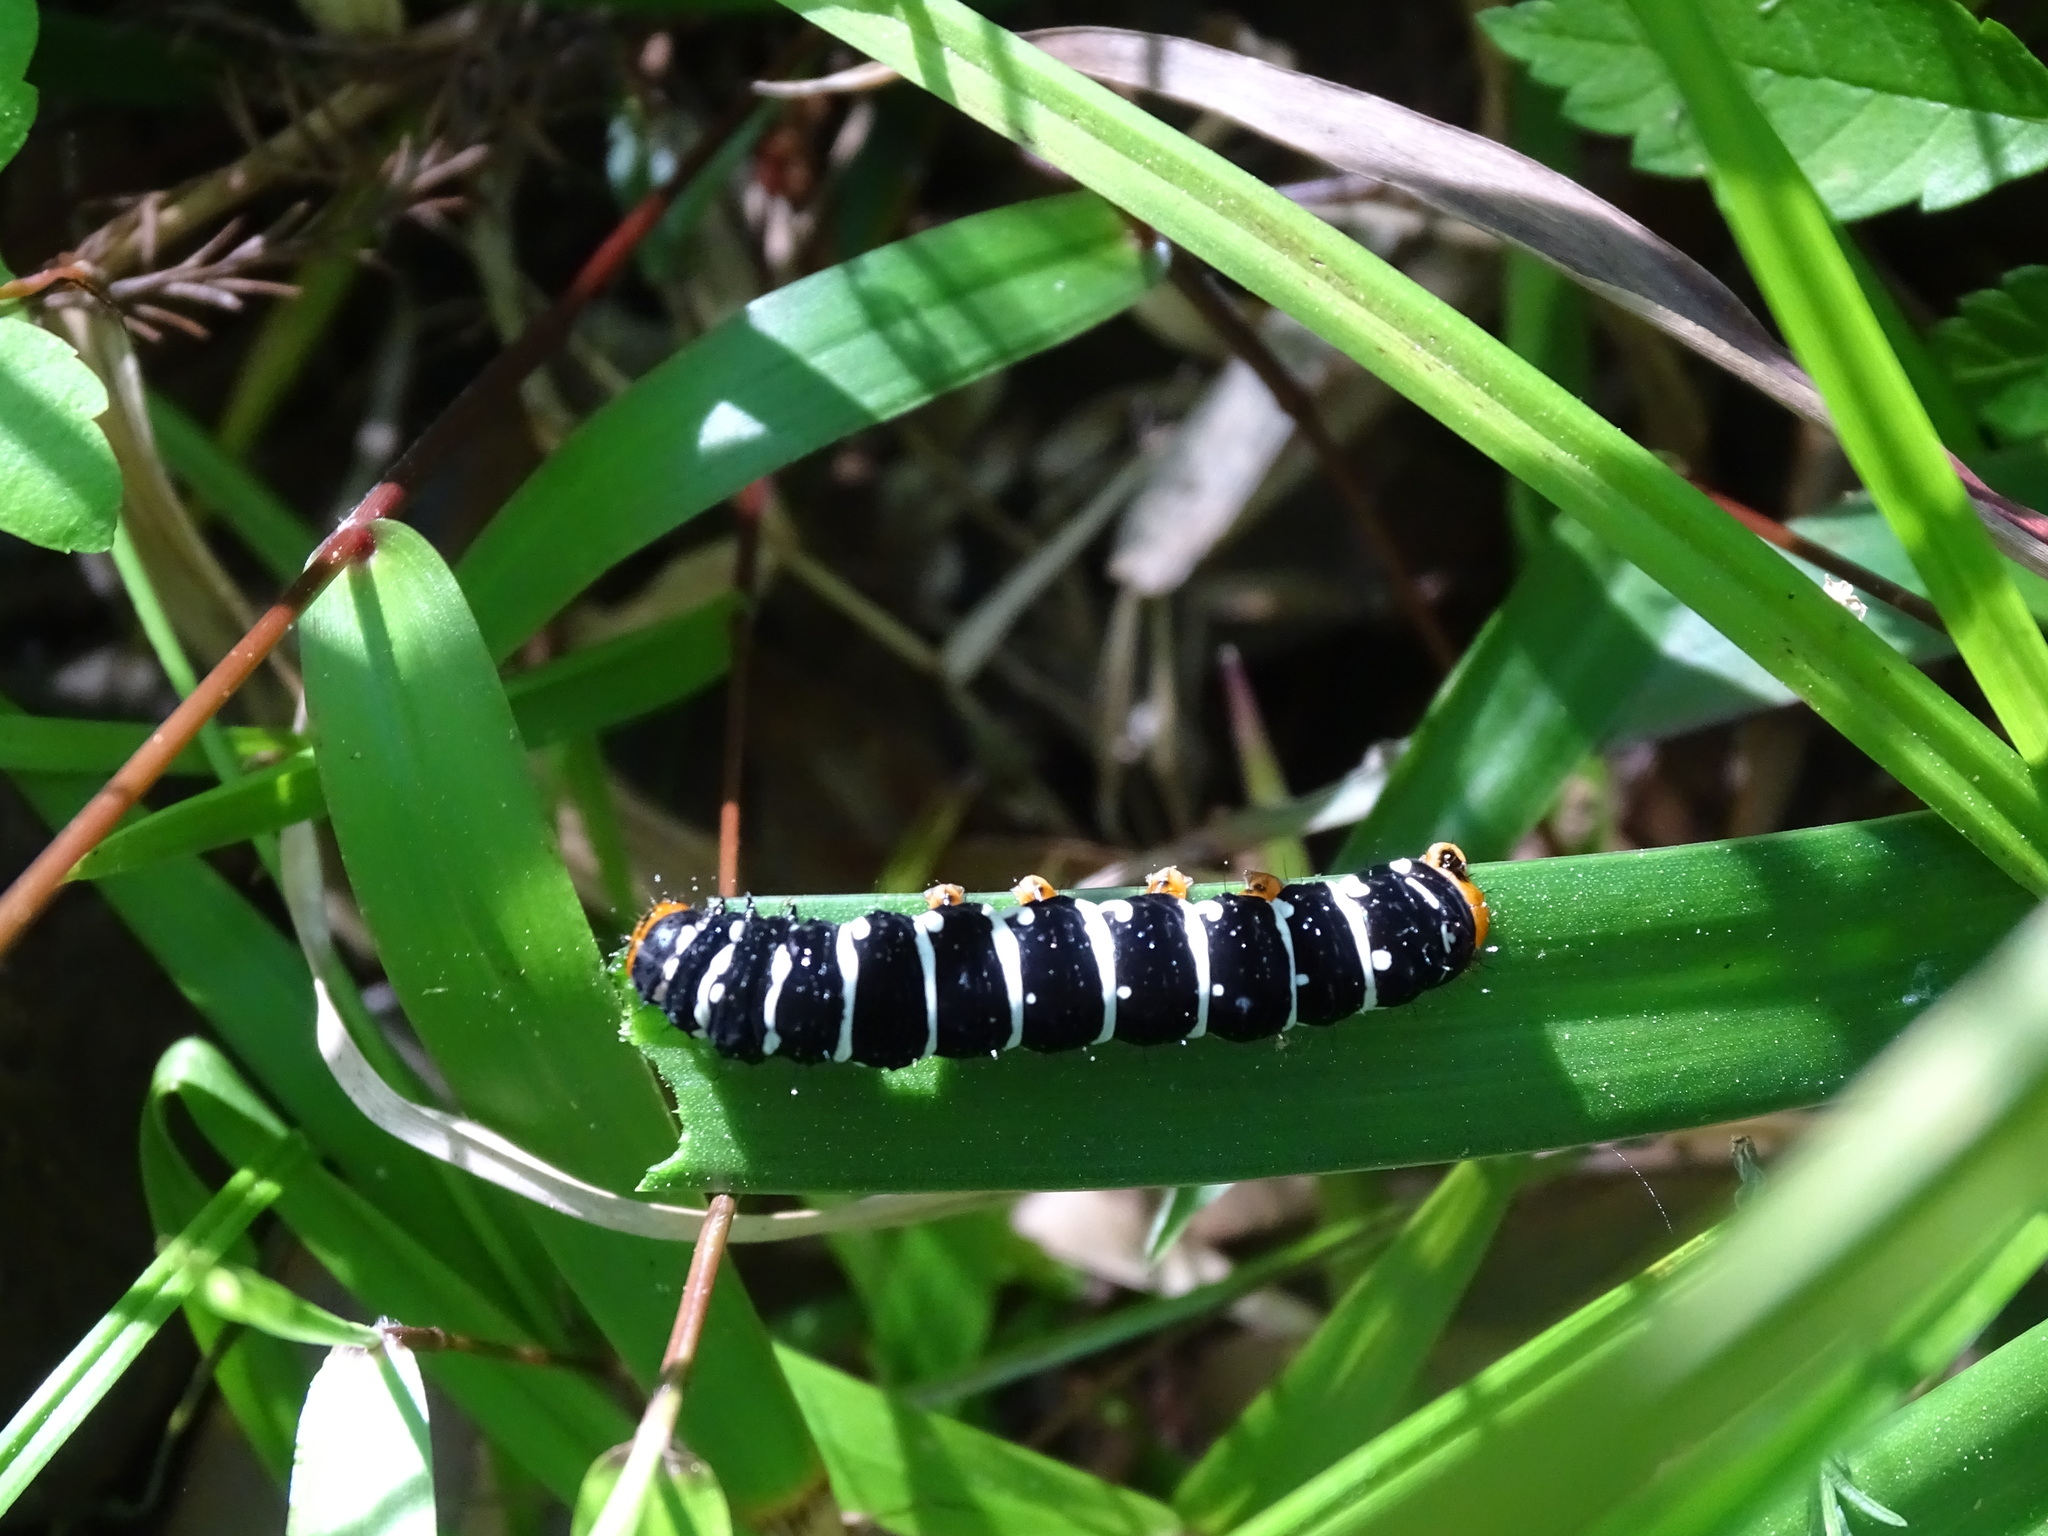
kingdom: Animalia
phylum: Arthropoda
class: Insecta
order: Lepidoptera
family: Noctuidae
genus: Xanthopastis
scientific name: Xanthopastis regnatrix
